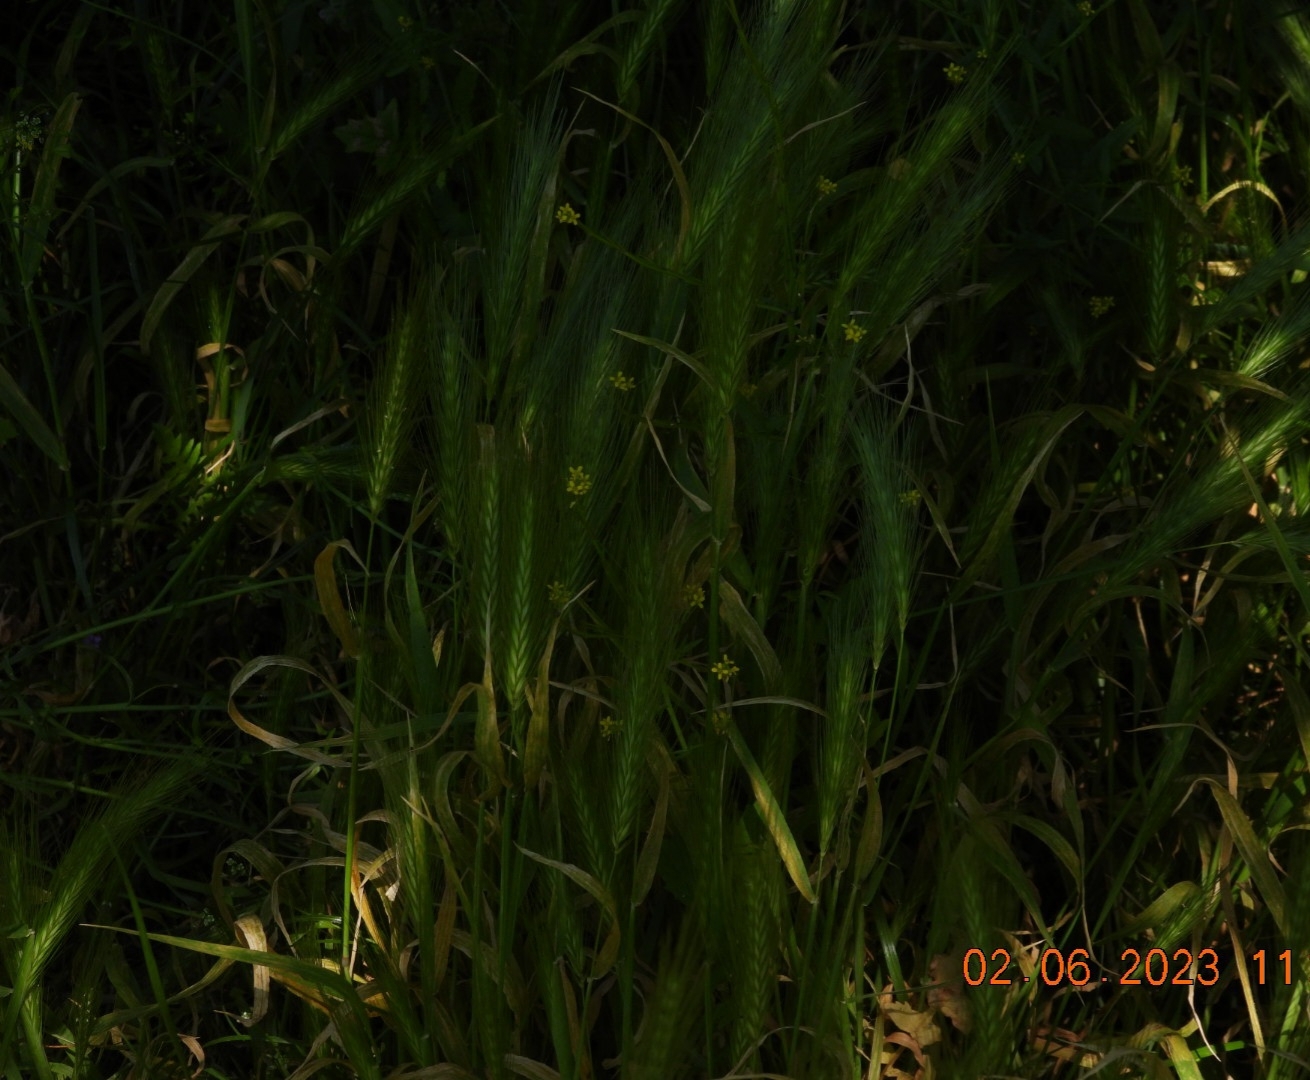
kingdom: Plantae
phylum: Tracheophyta
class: Liliopsida
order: Poales
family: Poaceae
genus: Hordeum
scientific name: Hordeum murinum
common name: Wall barley
